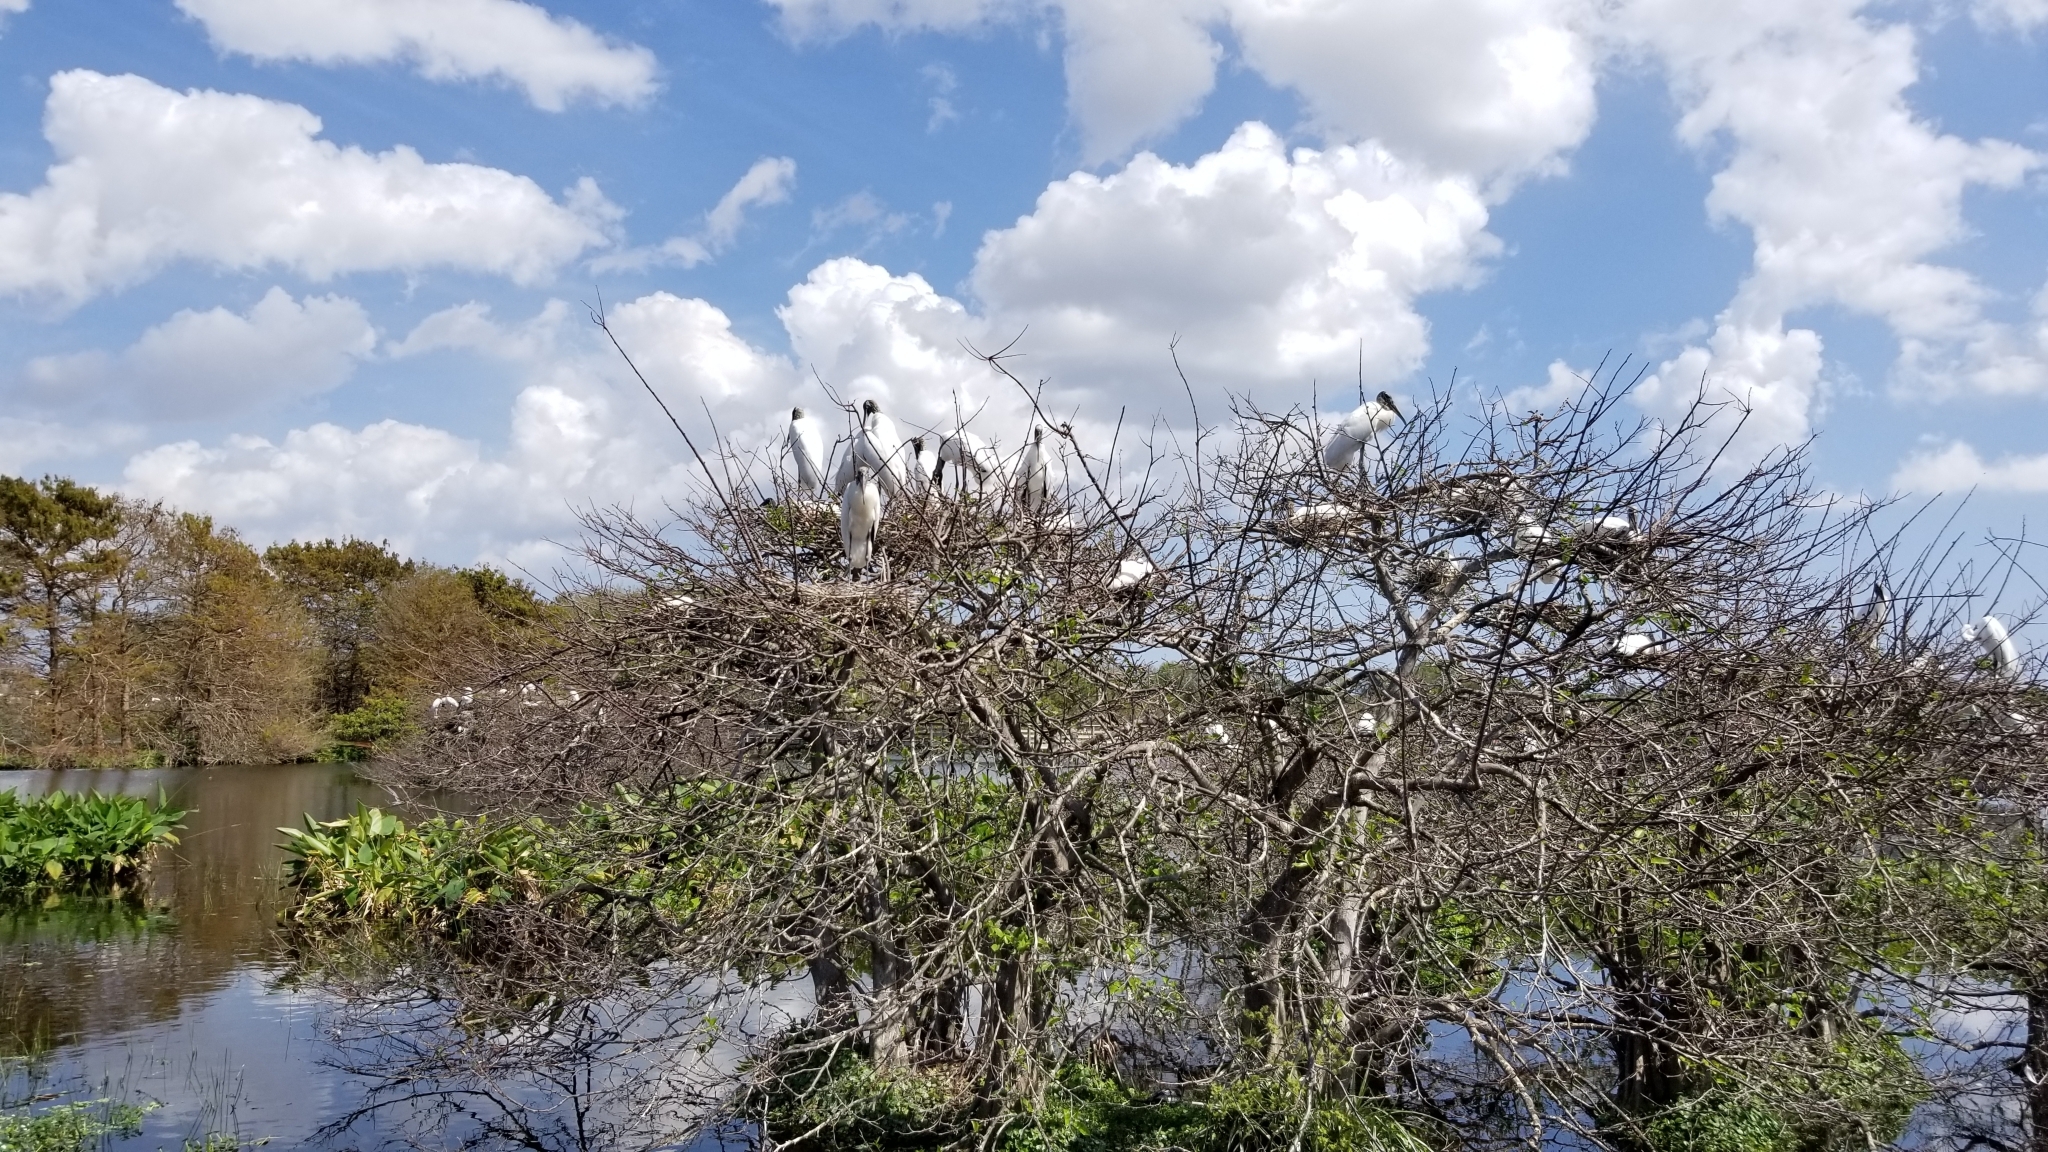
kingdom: Animalia
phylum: Chordata
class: Aves
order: Ciconiiformes
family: Ciconiidae
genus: Mycteria
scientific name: Mycteria americana
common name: Wood stork
